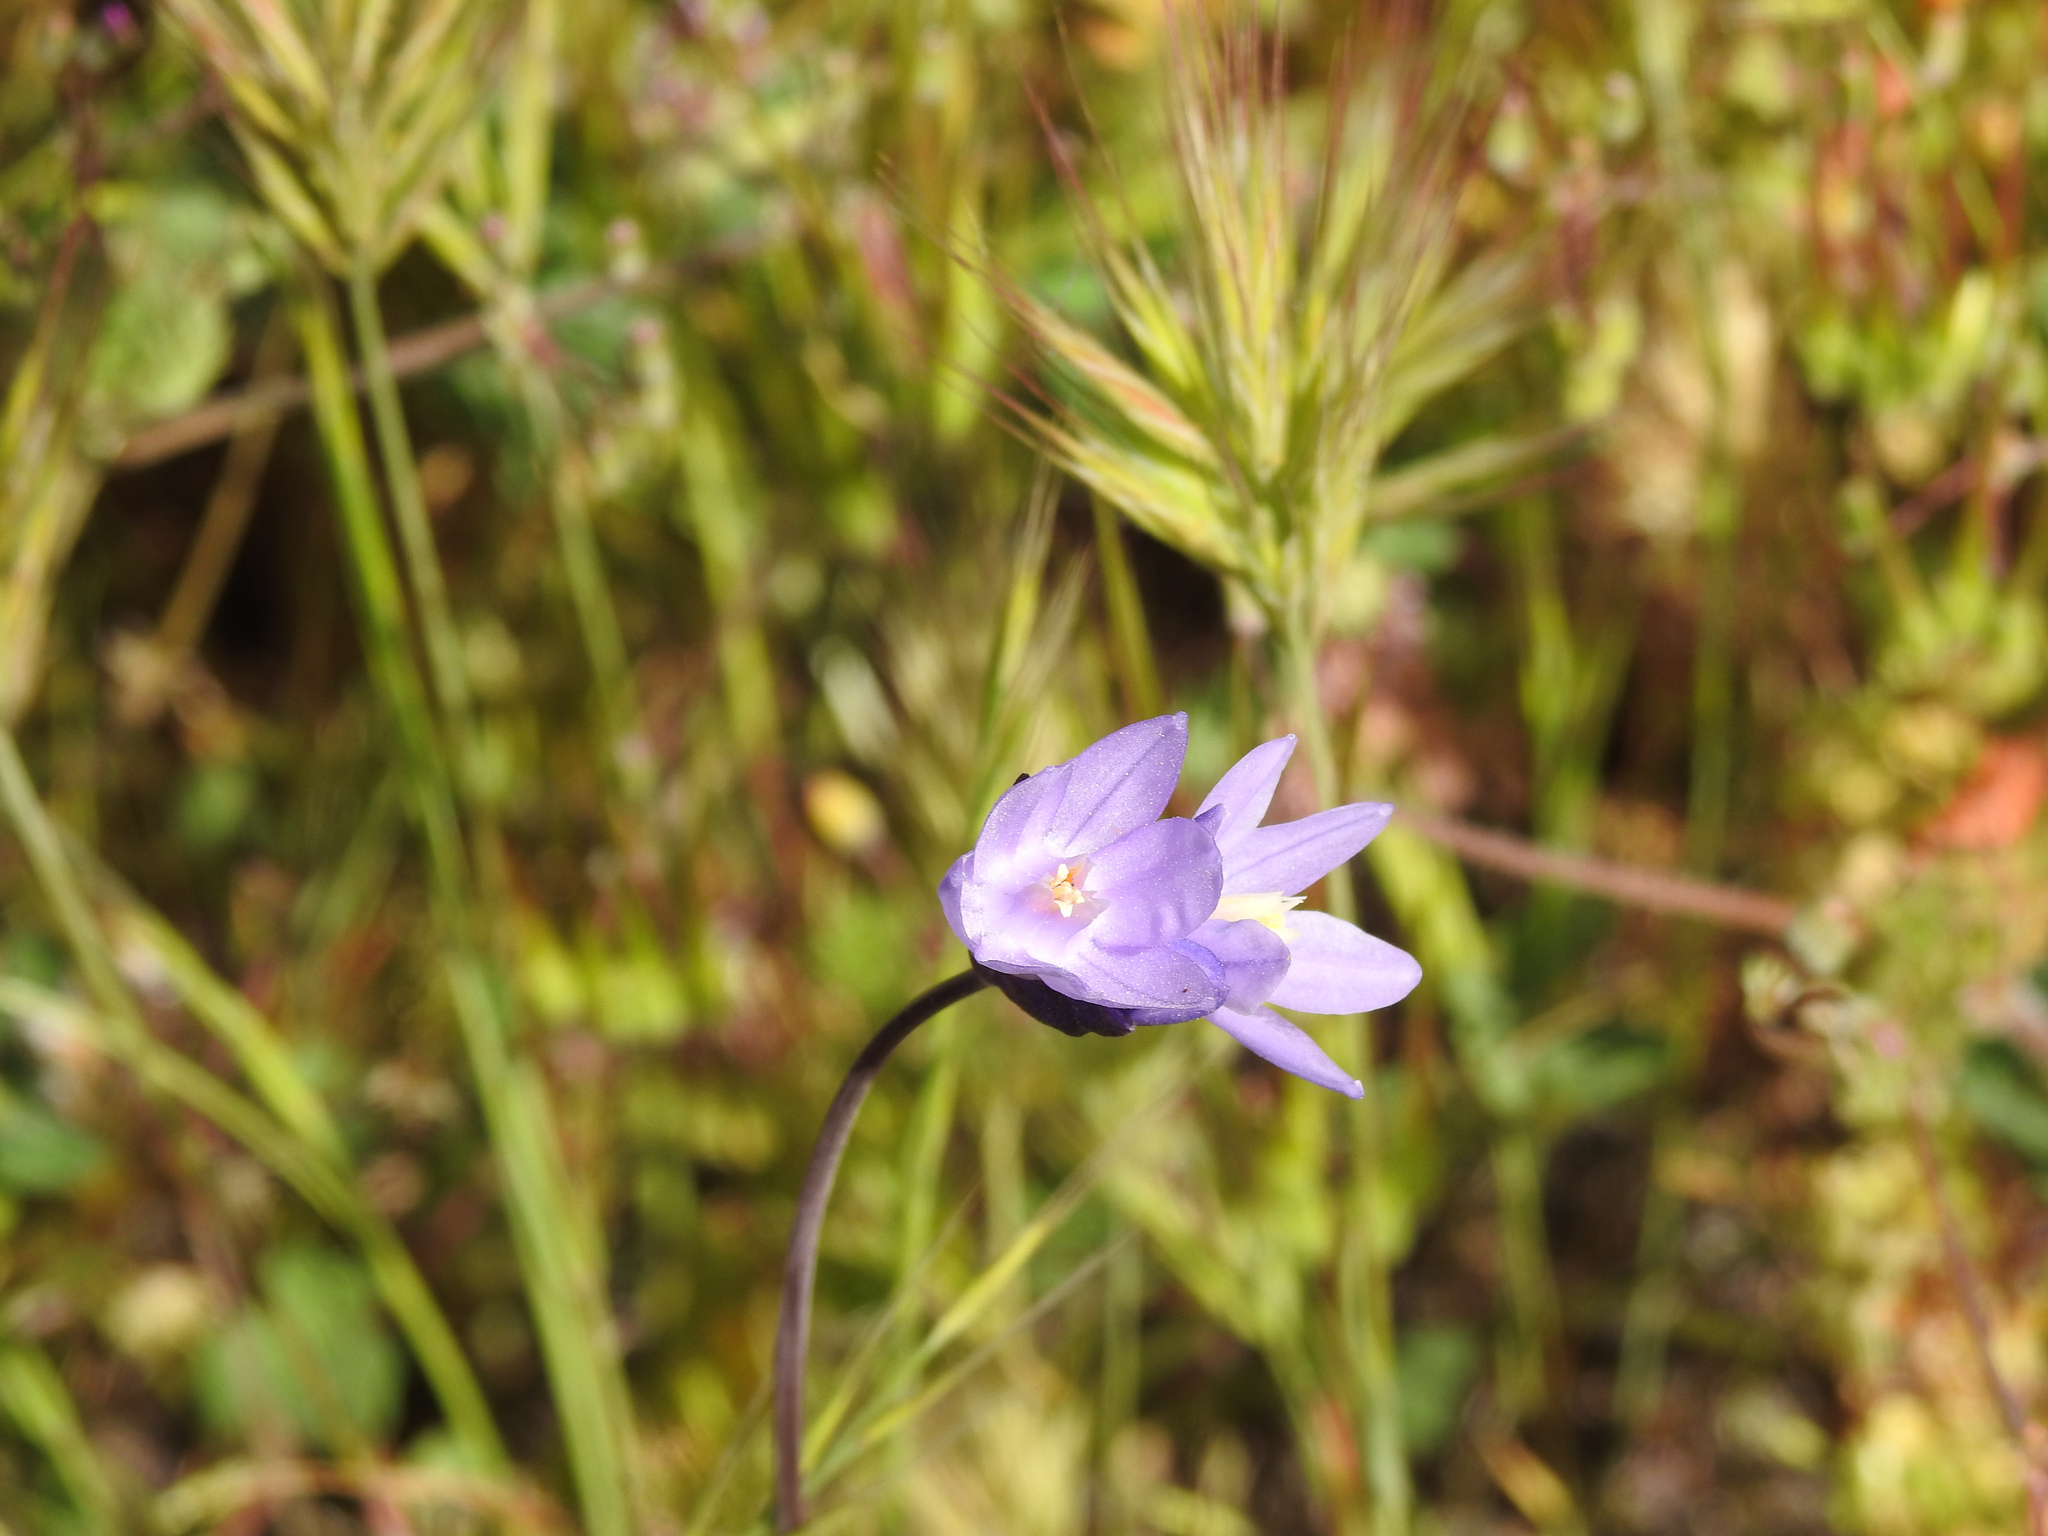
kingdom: Plantae
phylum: Tracheophyta
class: Liliopsida
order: Asparagales
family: Asparagaceae
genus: Dipterostemon
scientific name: Dipterostemon capitatus
